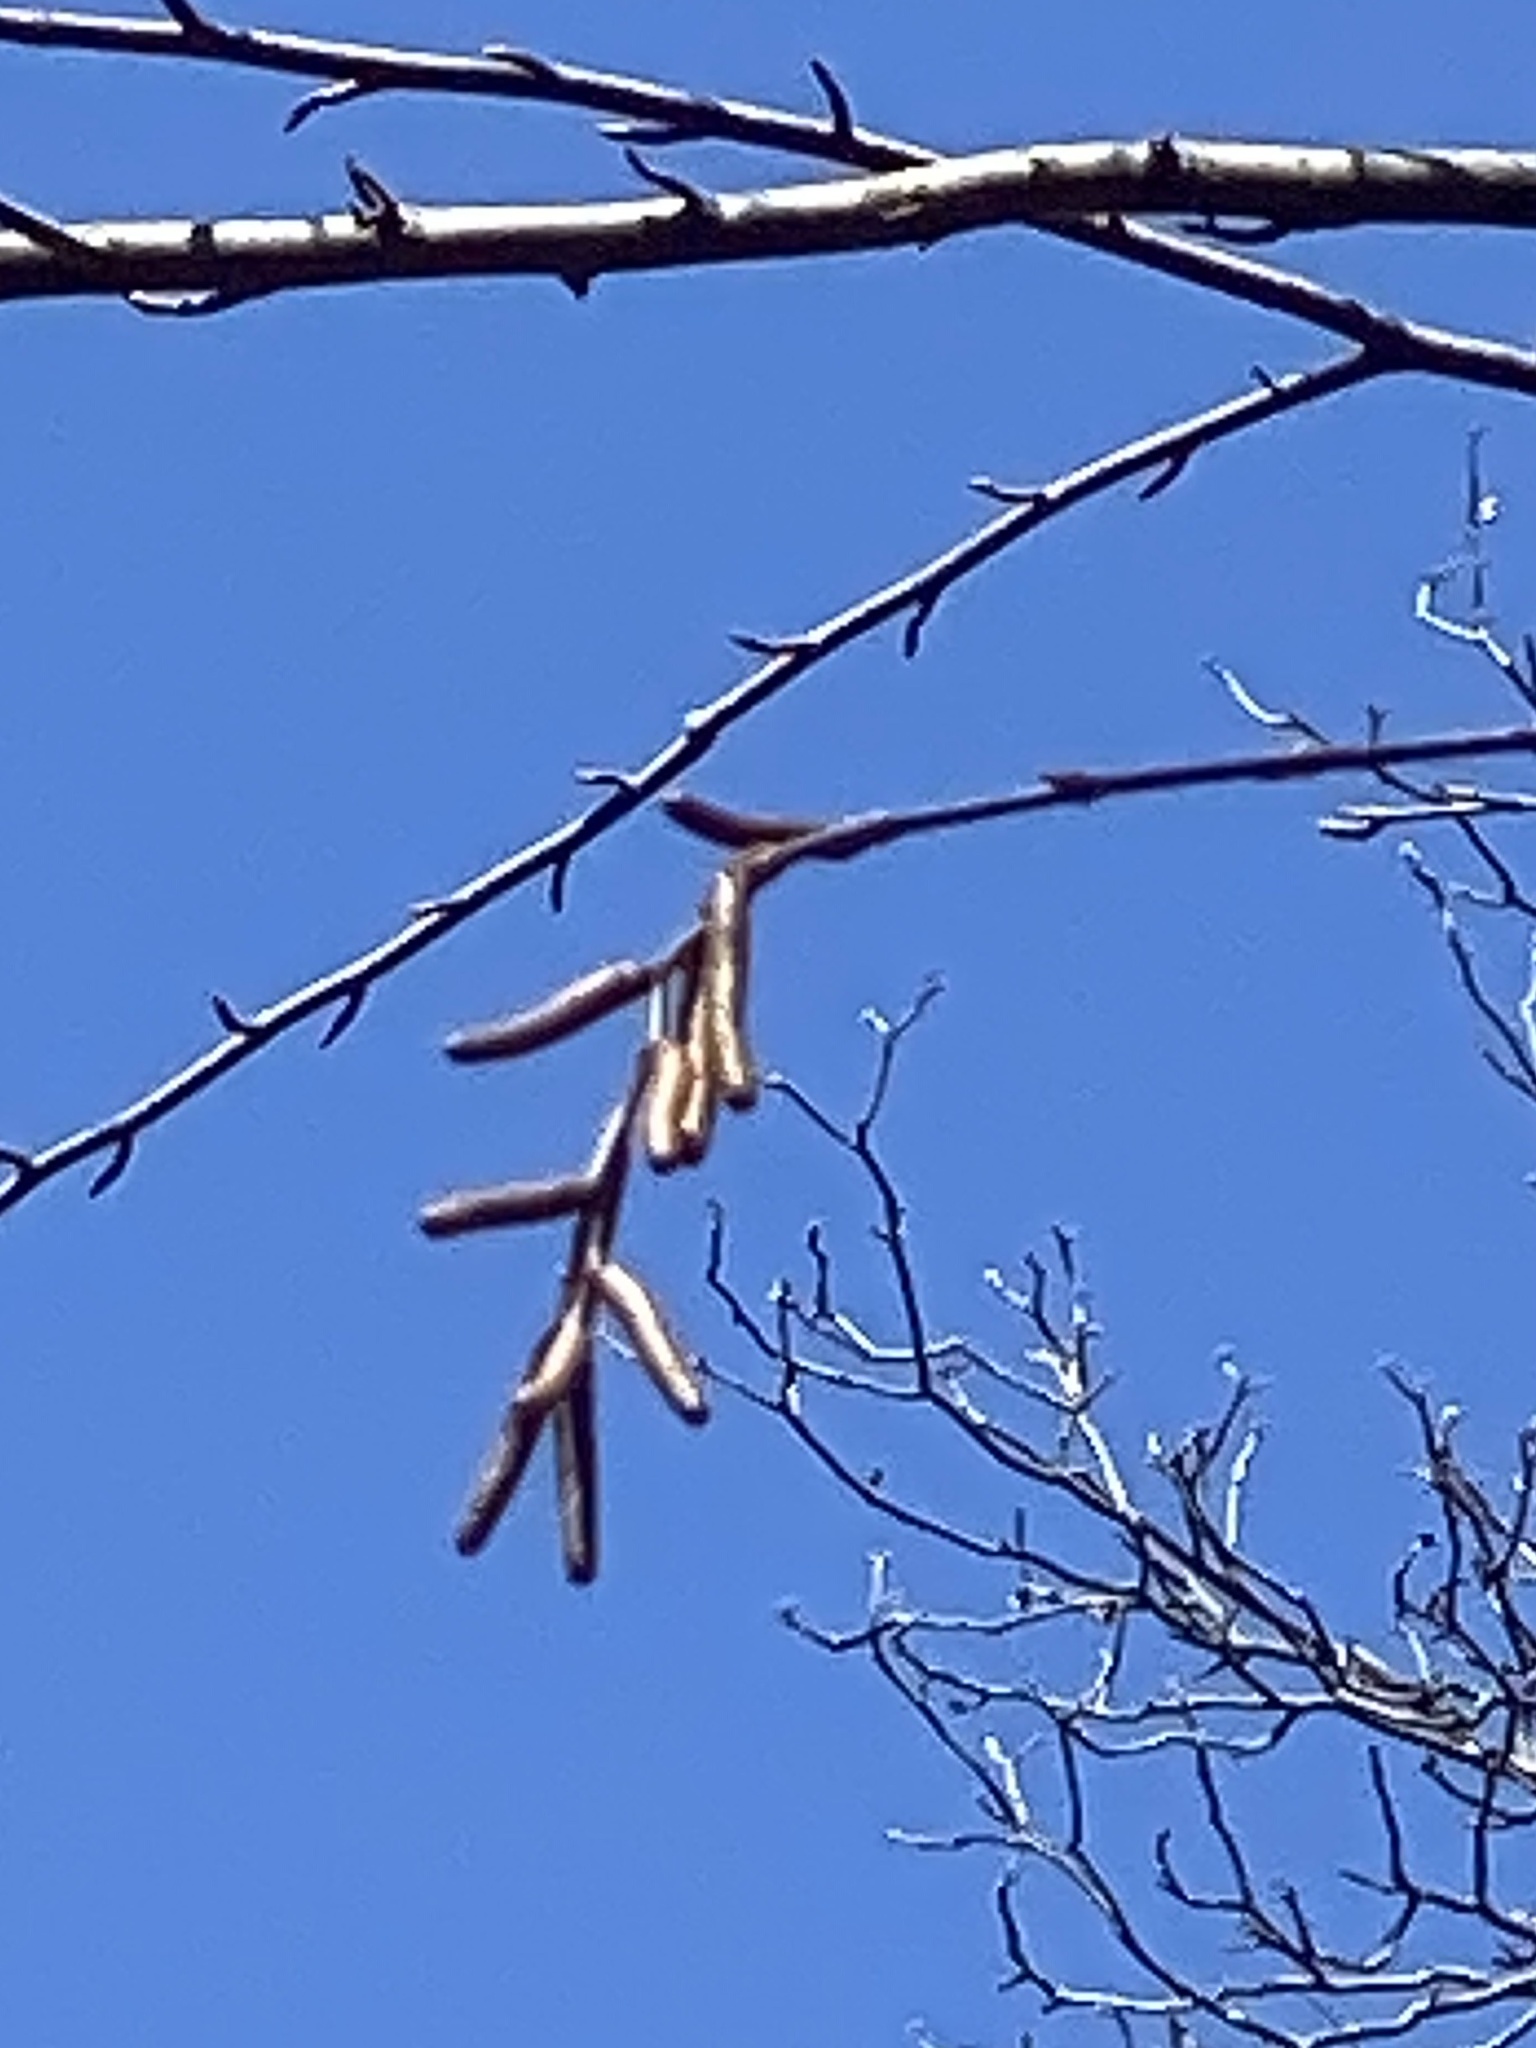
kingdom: Plantae
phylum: Tracheophyta
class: Magnoliopsida
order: Fagales
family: Betulaceae
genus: Betula
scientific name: Betula lenta
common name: Black birch
